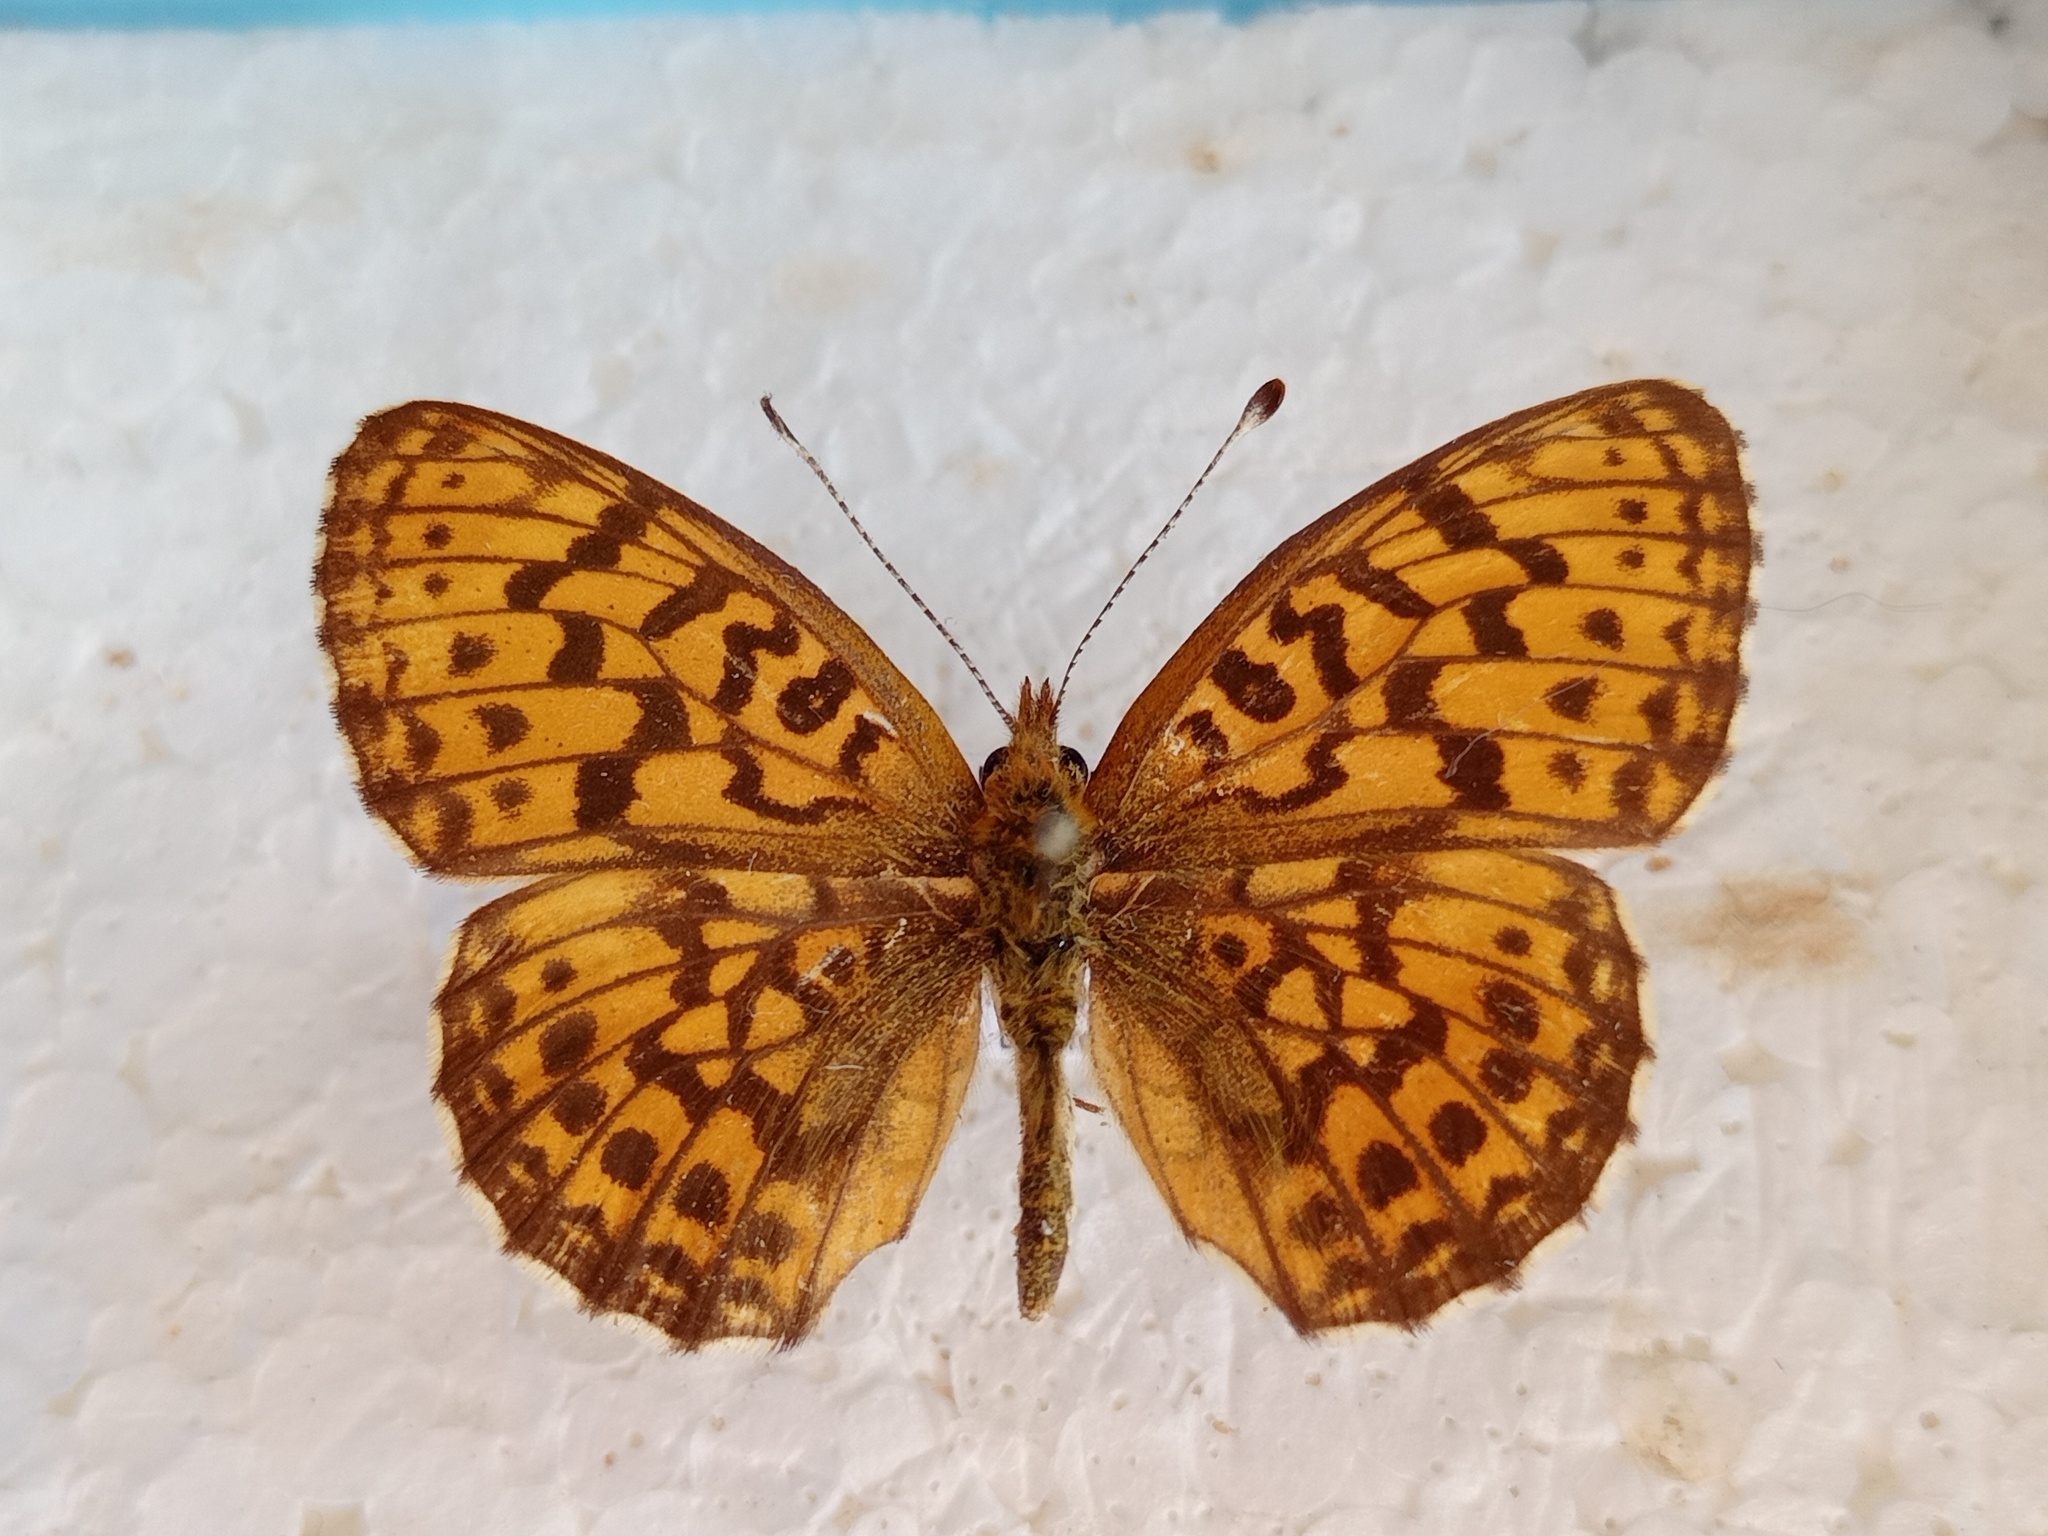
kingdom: Animalia
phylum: Arthropoda
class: Insecta
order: Lepidoptera
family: Nymphalidae
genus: Clossiana
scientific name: Clossiana selenis
